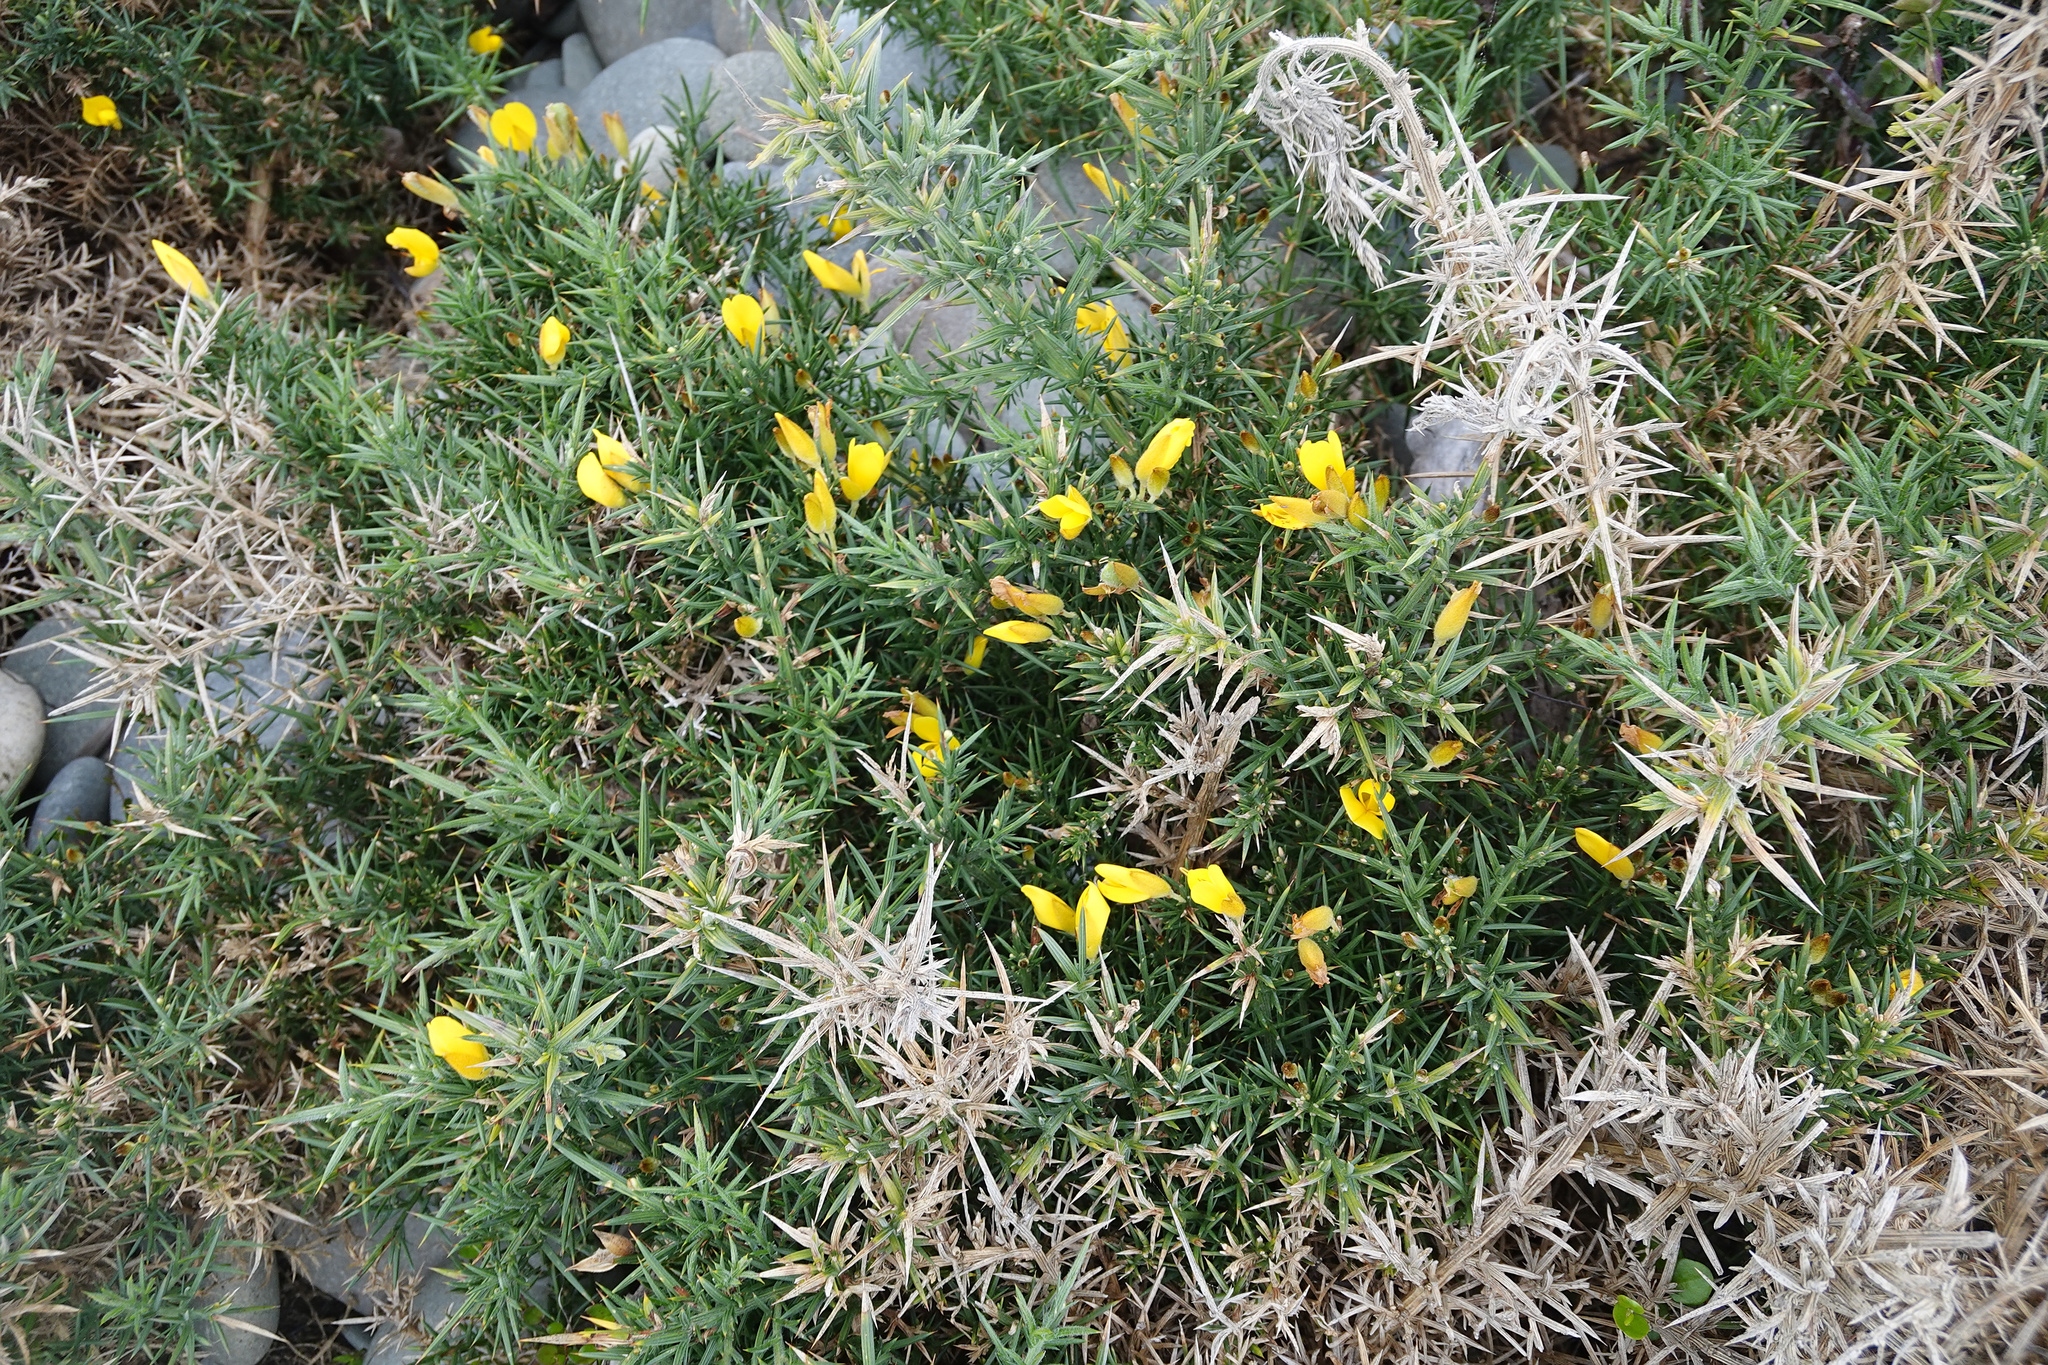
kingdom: Plantae
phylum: Tracheophyta
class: Magnoliopsida
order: Fabales
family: Fabaceae
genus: Ulex
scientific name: Ulex europaeus
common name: Common gorse
